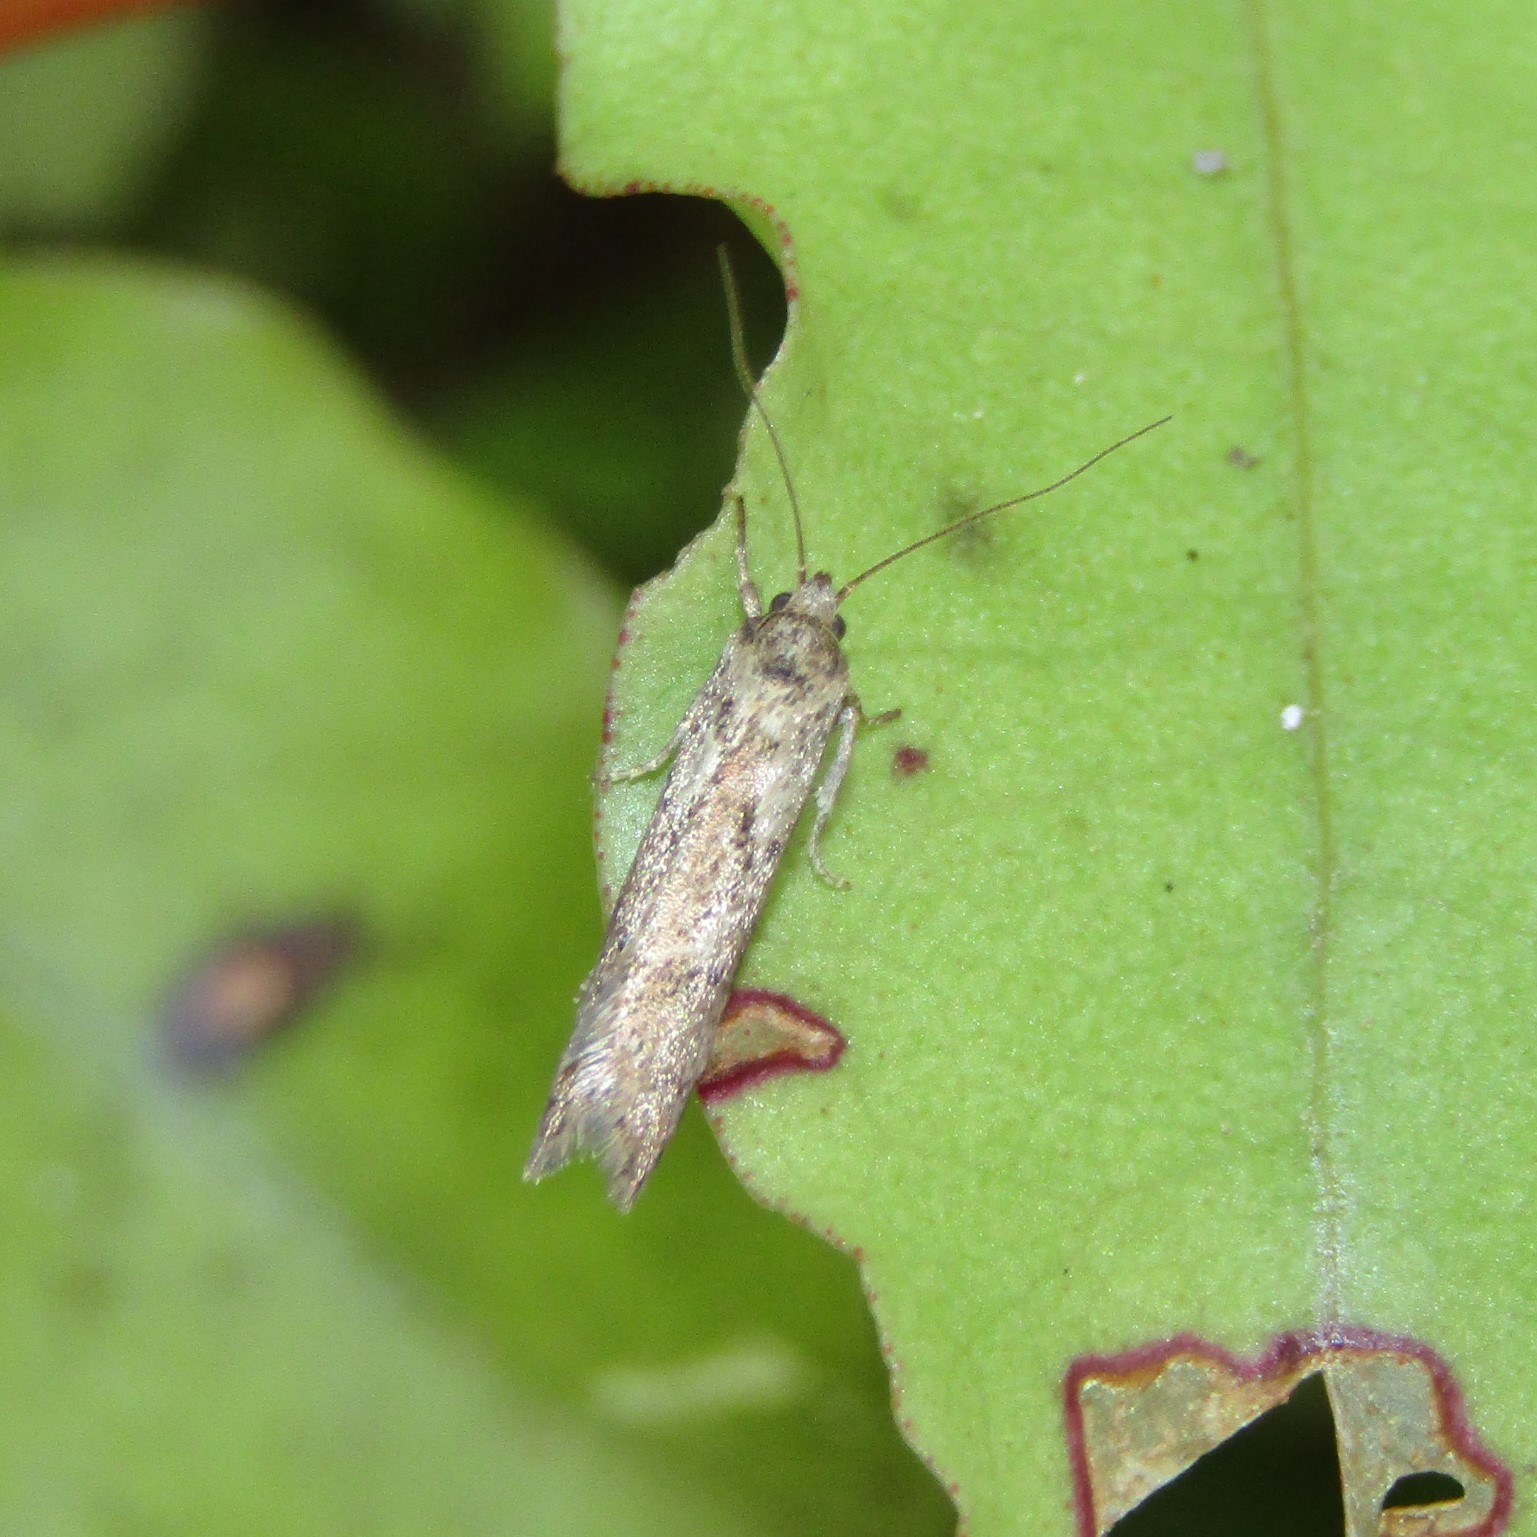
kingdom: Animalia
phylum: Arthropoda
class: Insecta
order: Lepidoptera
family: Oecophoridae
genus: Chersadaula
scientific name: Chersadaula ochrogastra
